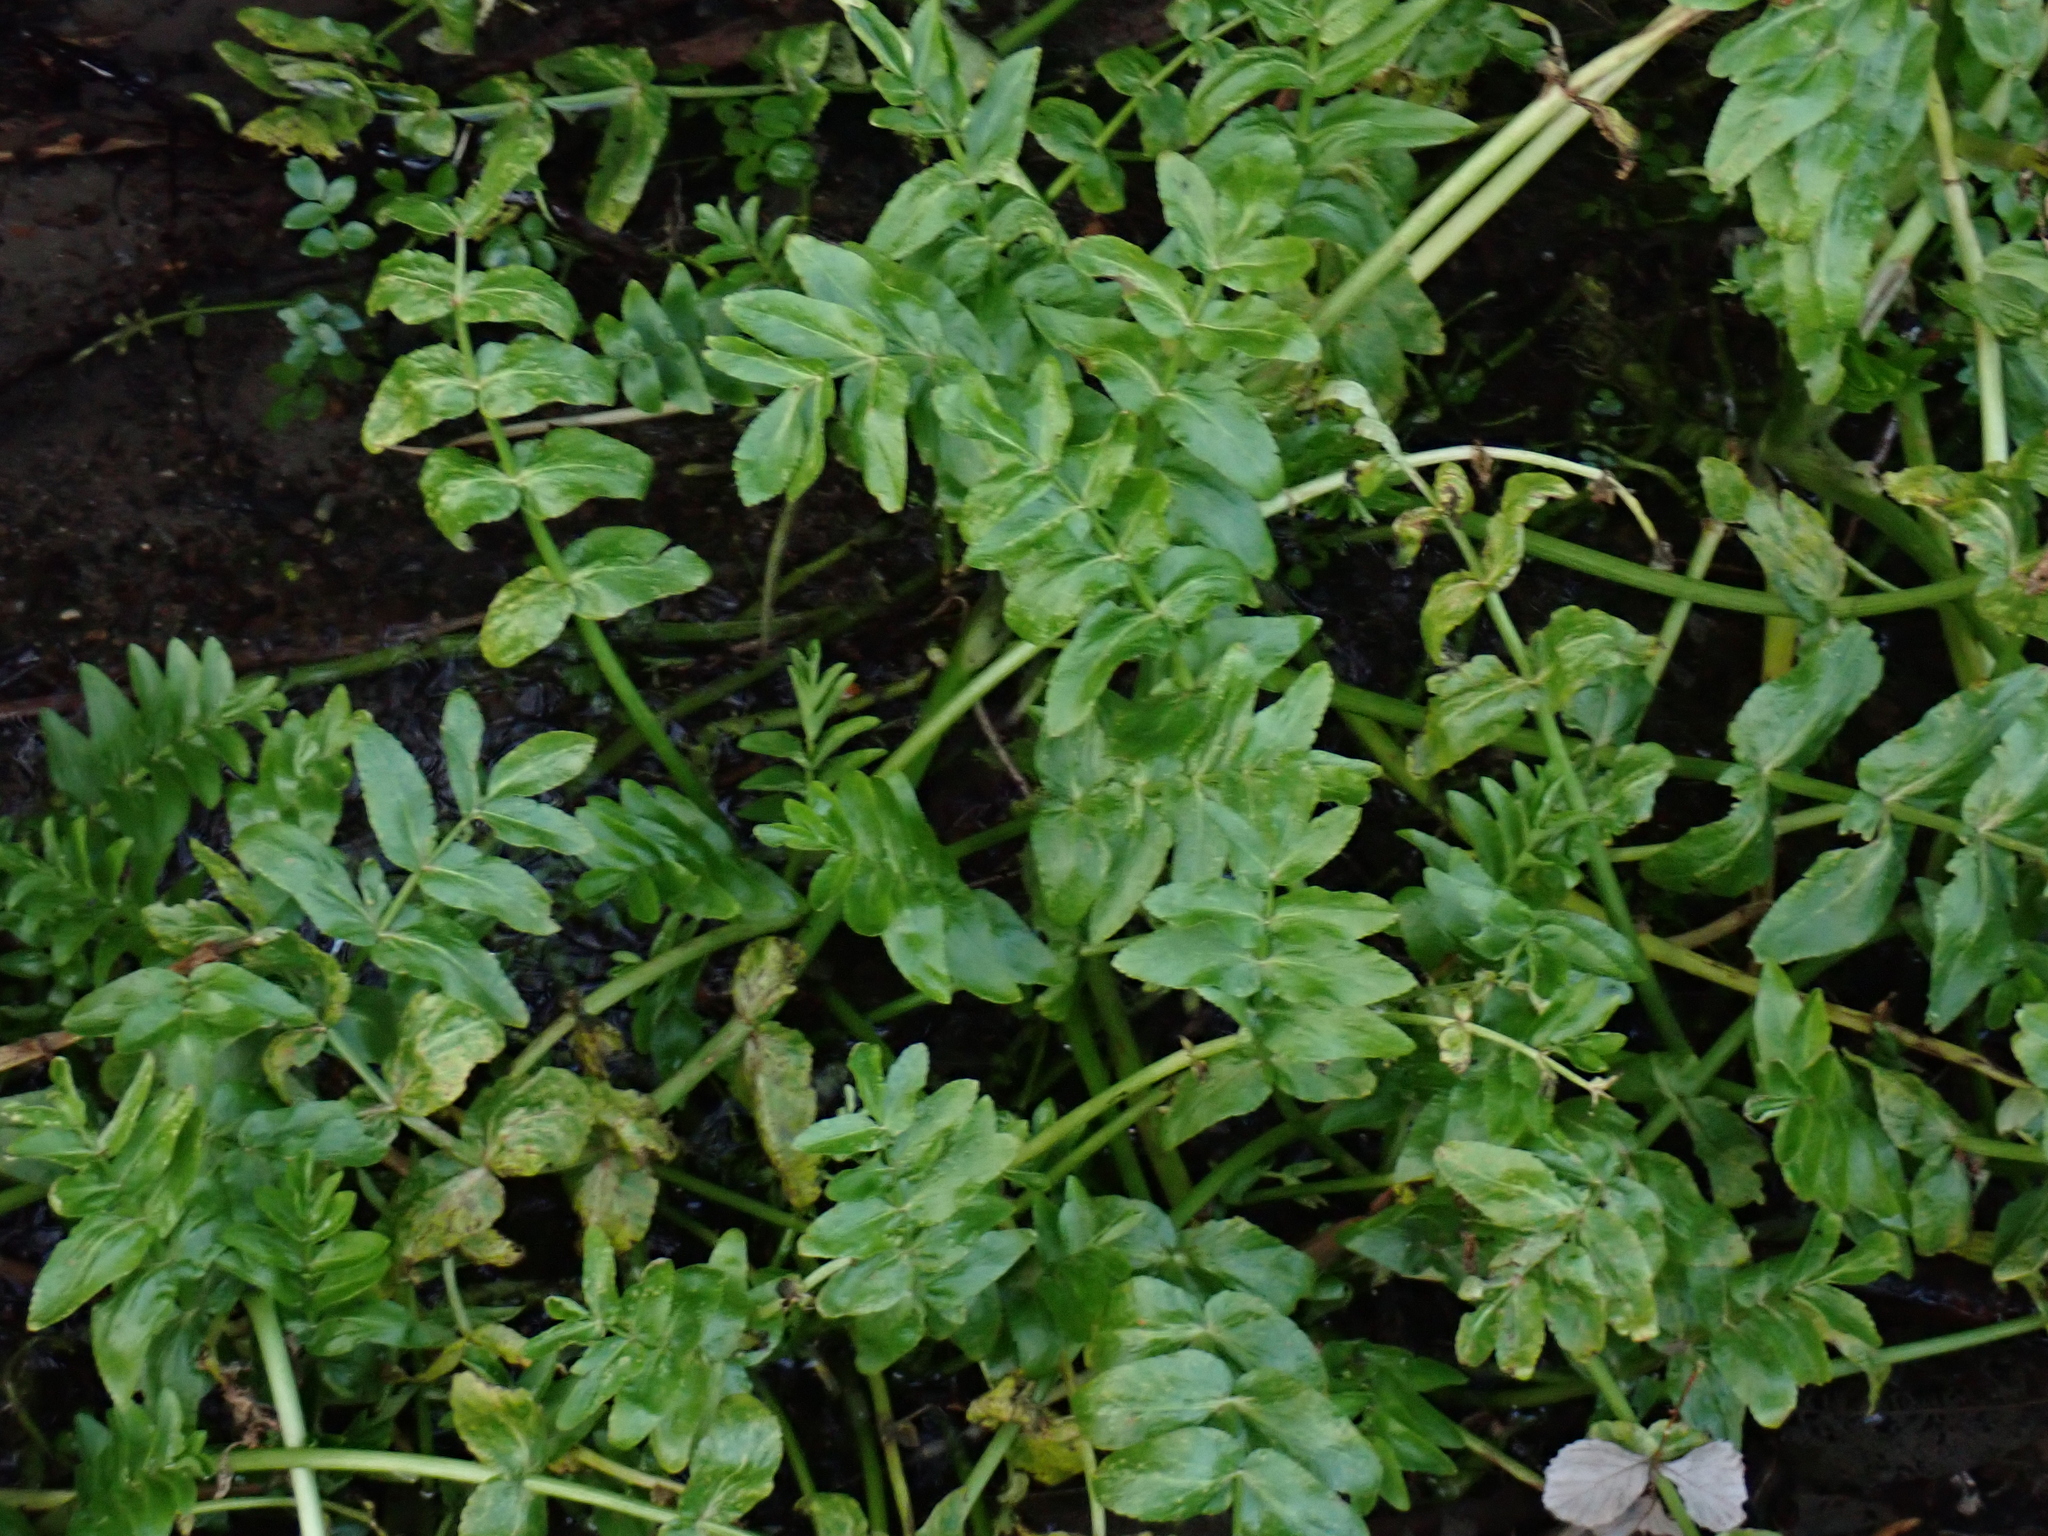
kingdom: Plantae
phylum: Tracheophyta
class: Magnoliopsida
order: Apiales
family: Apiaceae
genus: Berula
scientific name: Berula erecta
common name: Lesser water-parsnip
